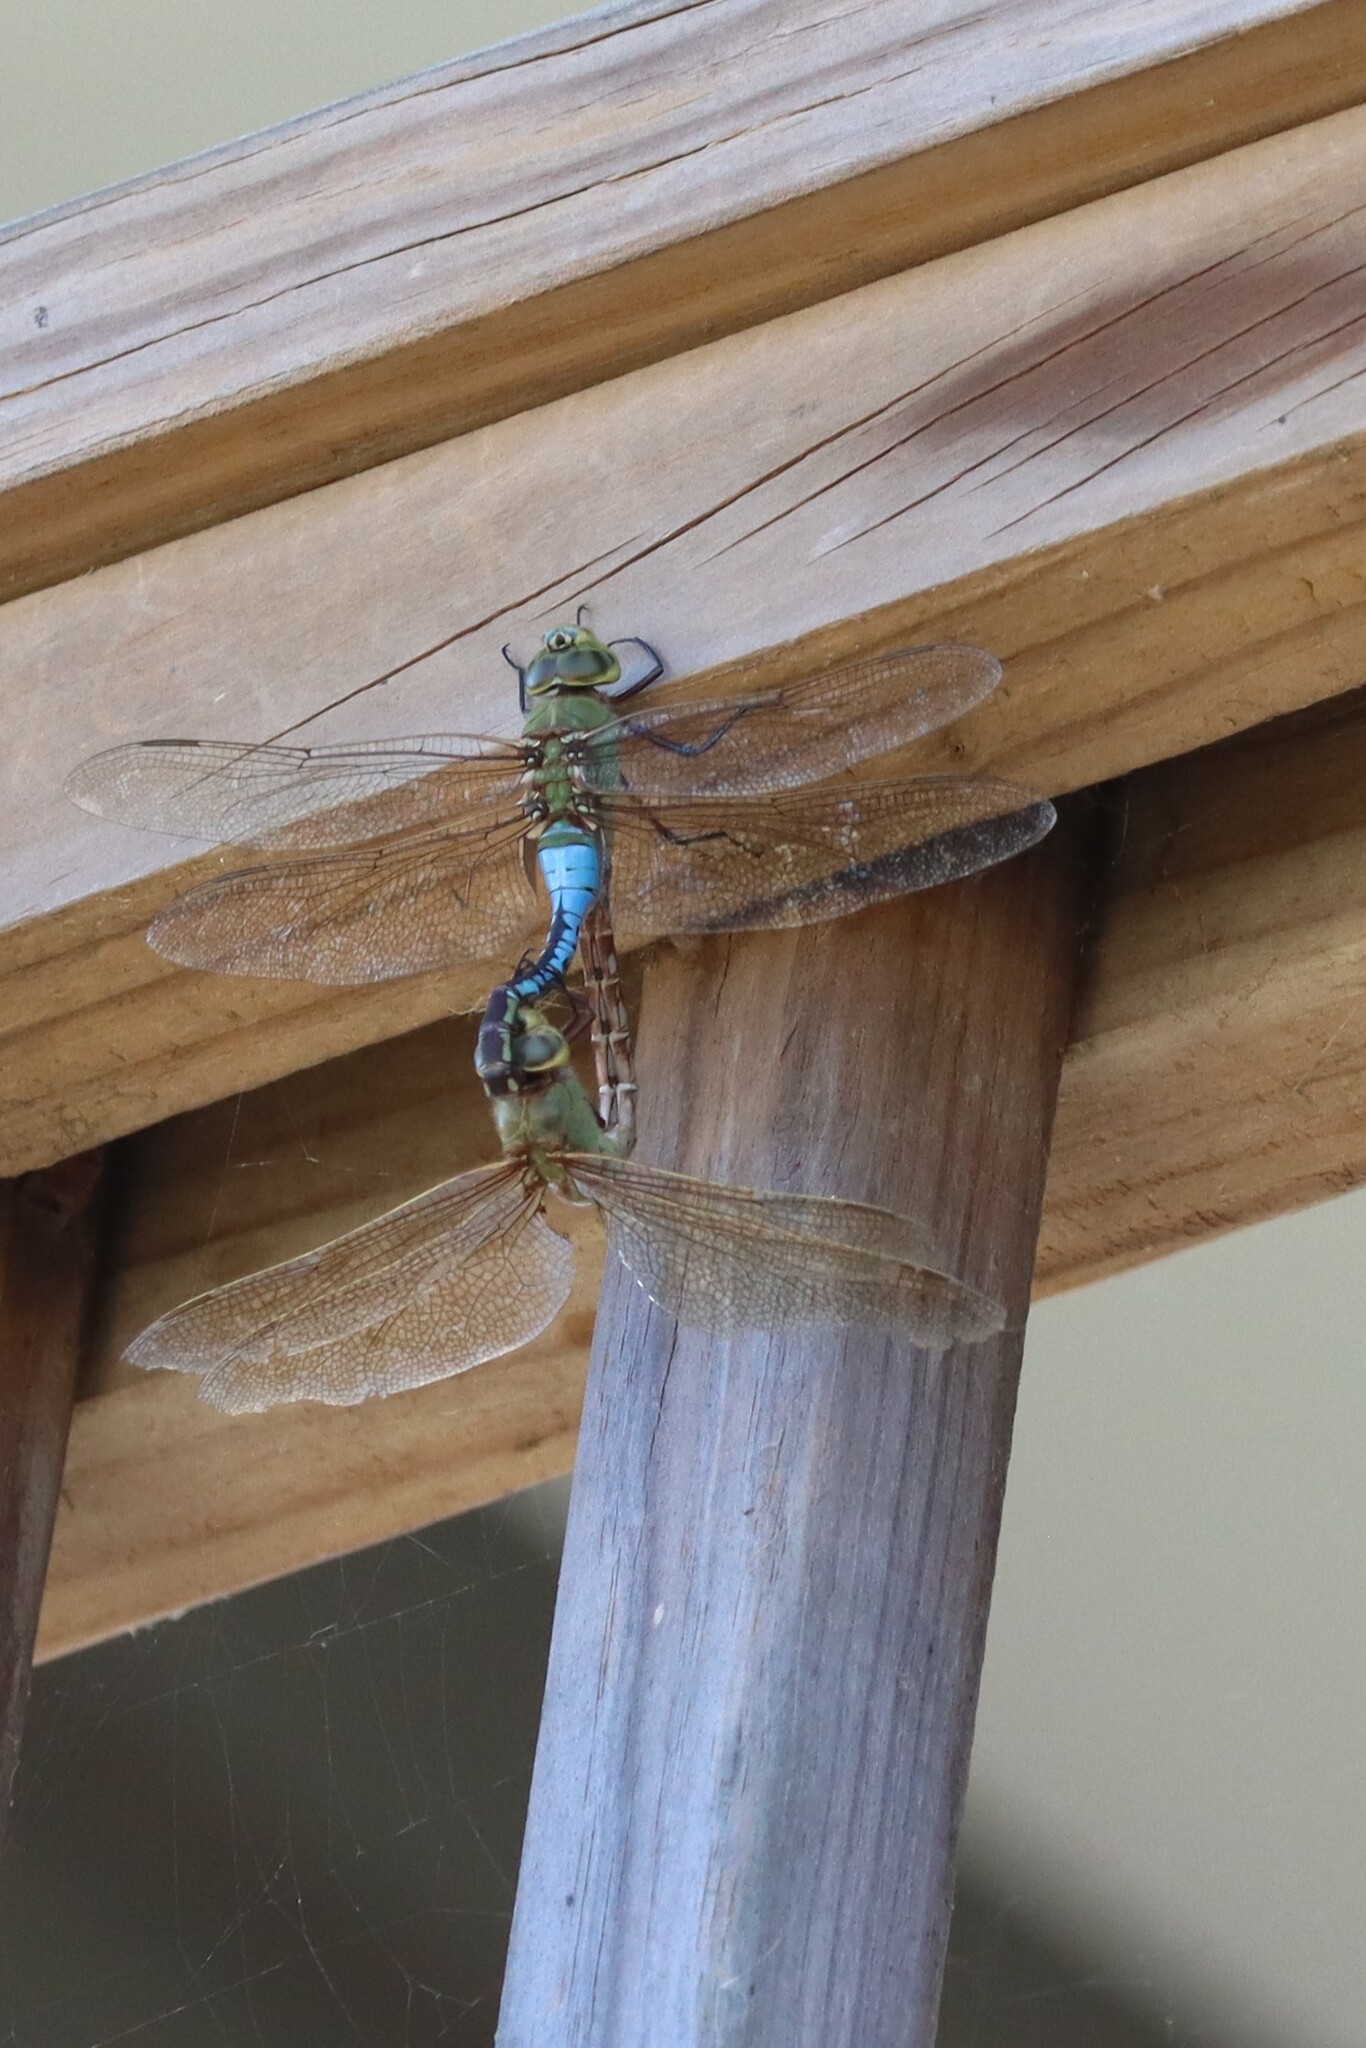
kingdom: Animalia
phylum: Arthropoda
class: Insecta
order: Odonata
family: Aeshnidae
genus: Anax
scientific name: Anax junius
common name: Common green darner
